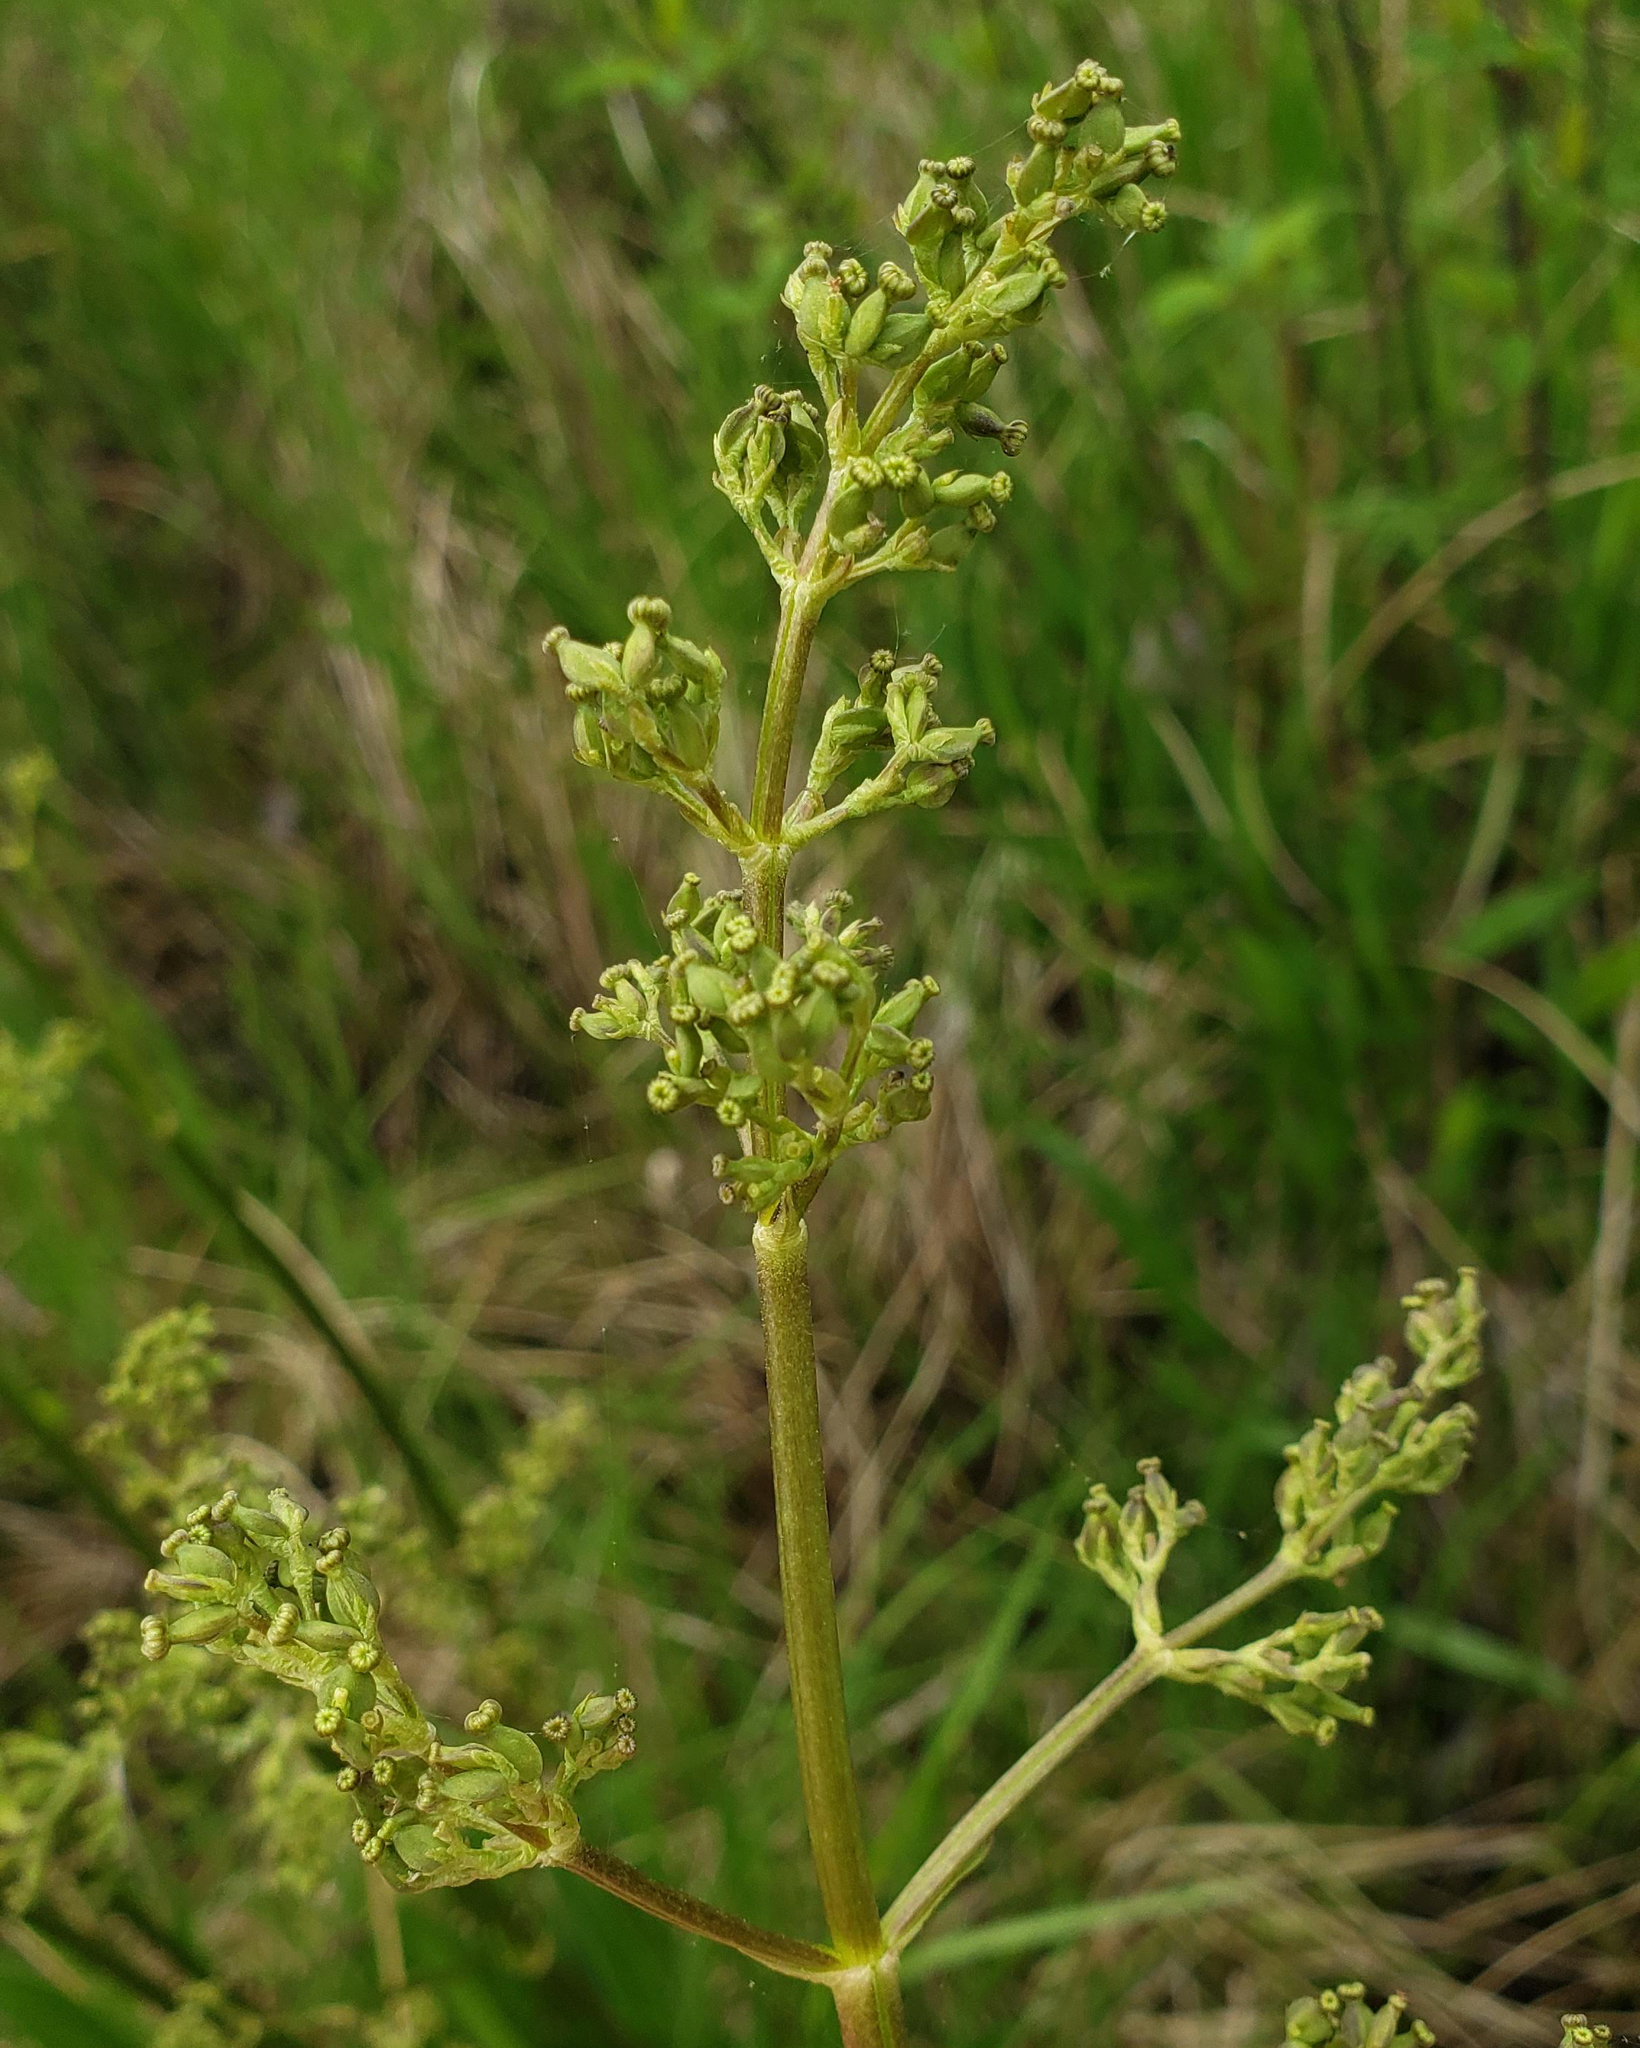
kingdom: Plantae
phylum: Tracheophyta
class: Magnoliopsida
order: Dipsacales
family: Caprifoliaceae
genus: Valeriana
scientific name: Valeriana edulis
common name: Taproot valerian
